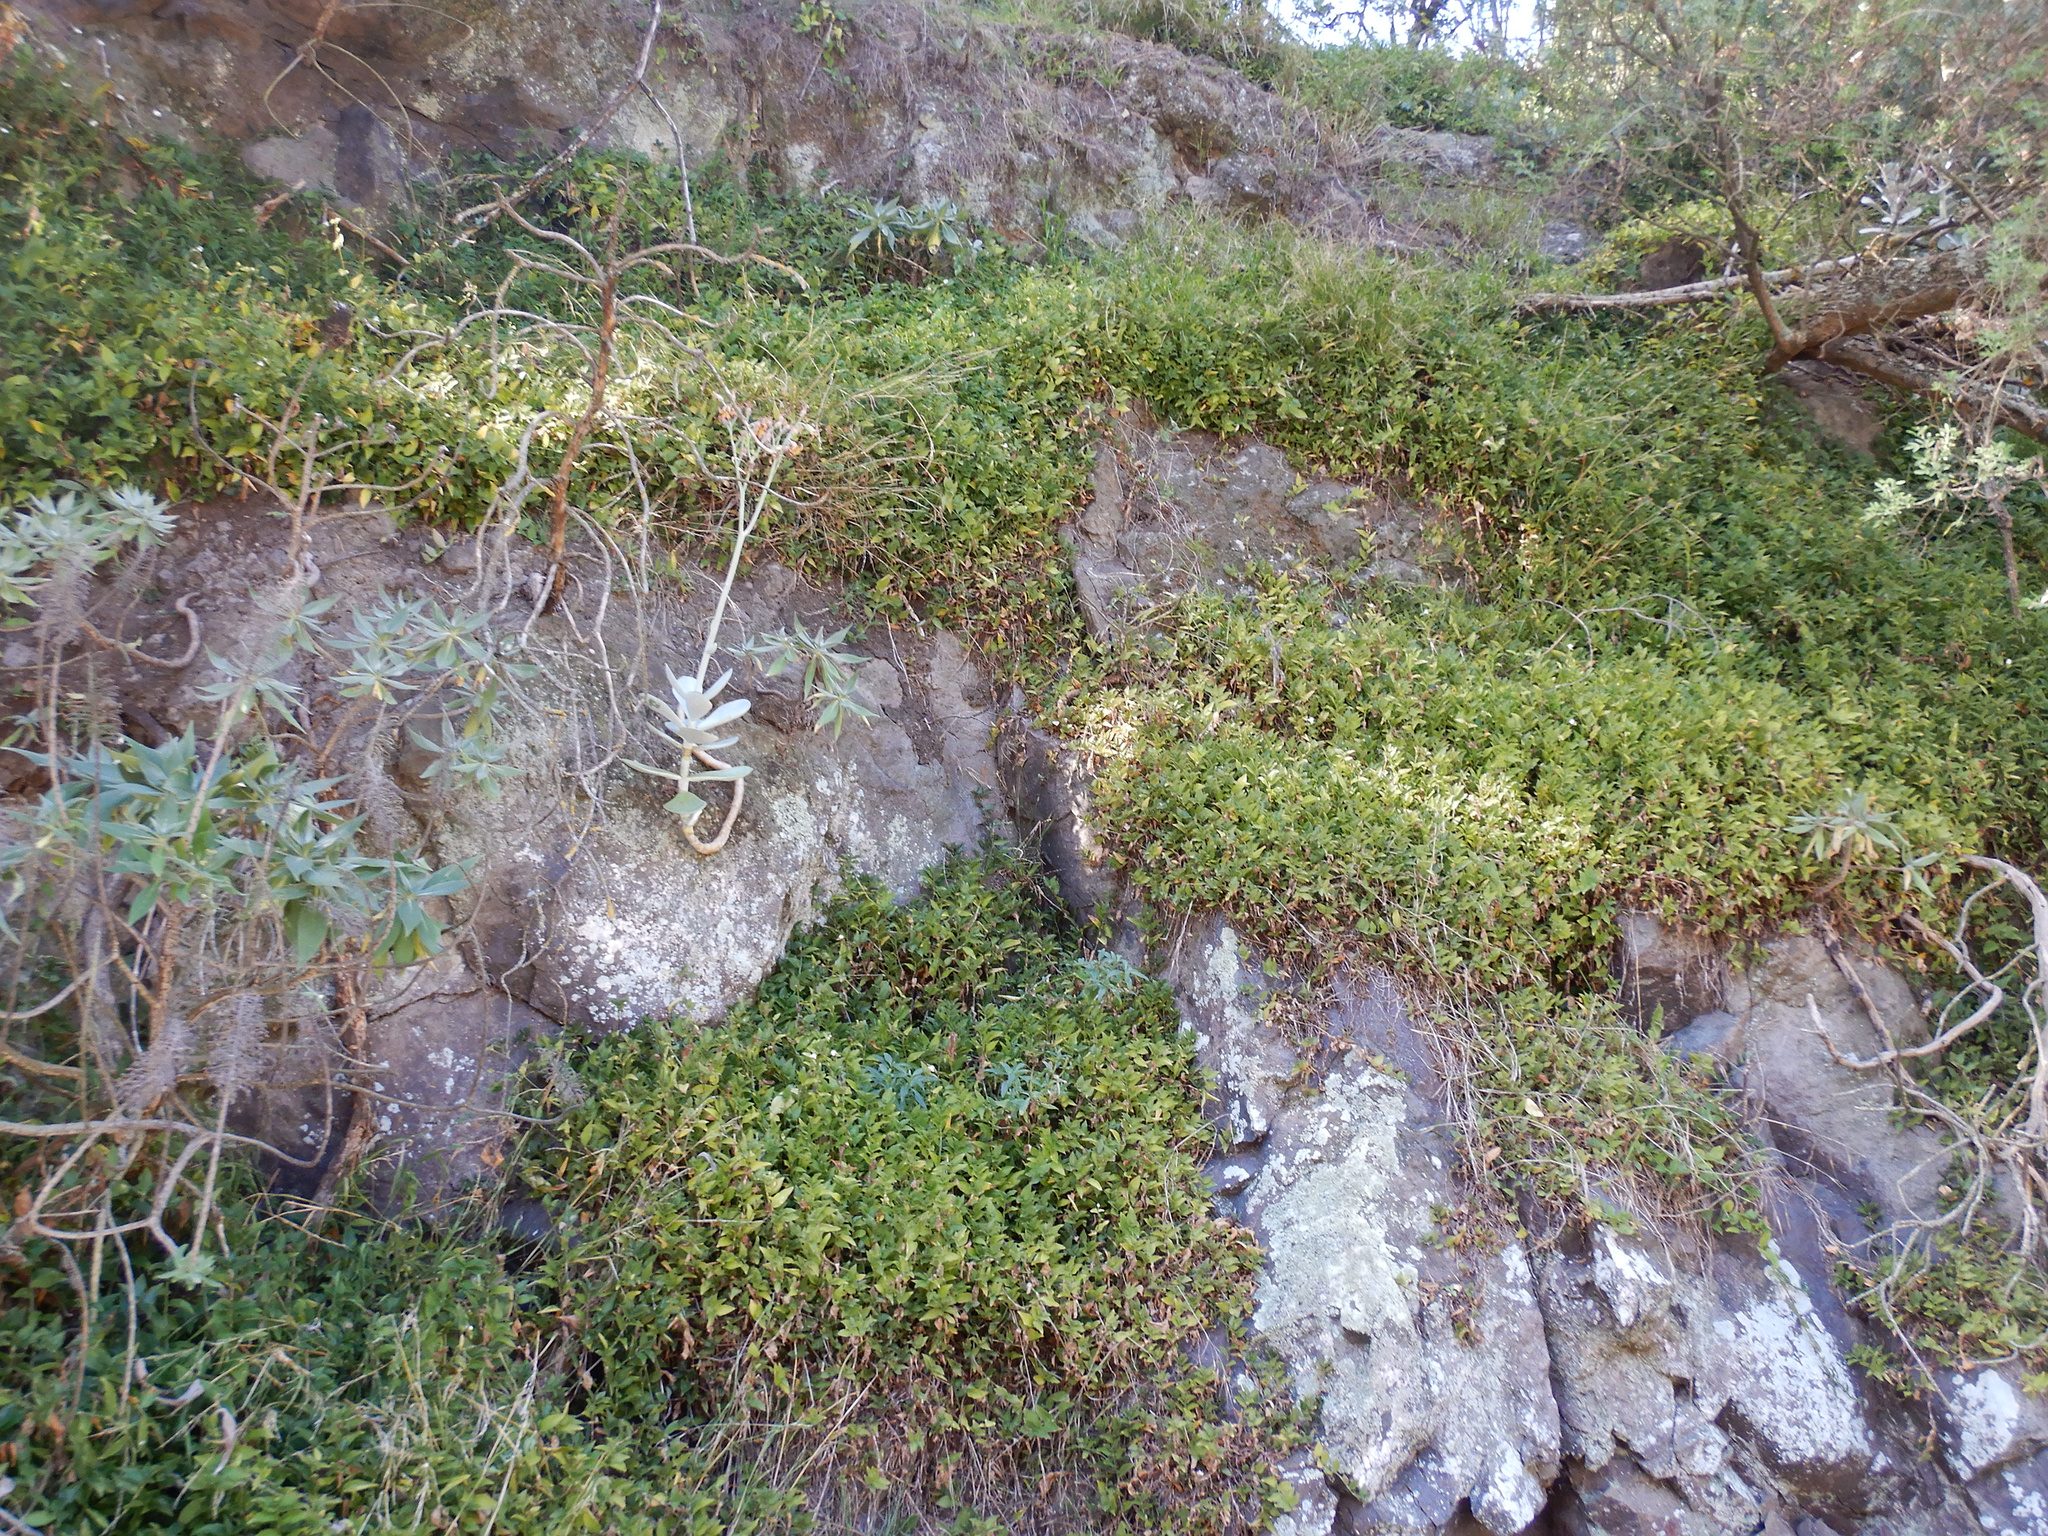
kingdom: Plantae
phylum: Tracheophyta
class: Liliopsida
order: Commelinales
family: Commelinaceae
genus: Tradescantia
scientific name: Tradescantia fluminensis
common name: Wandering-jew
